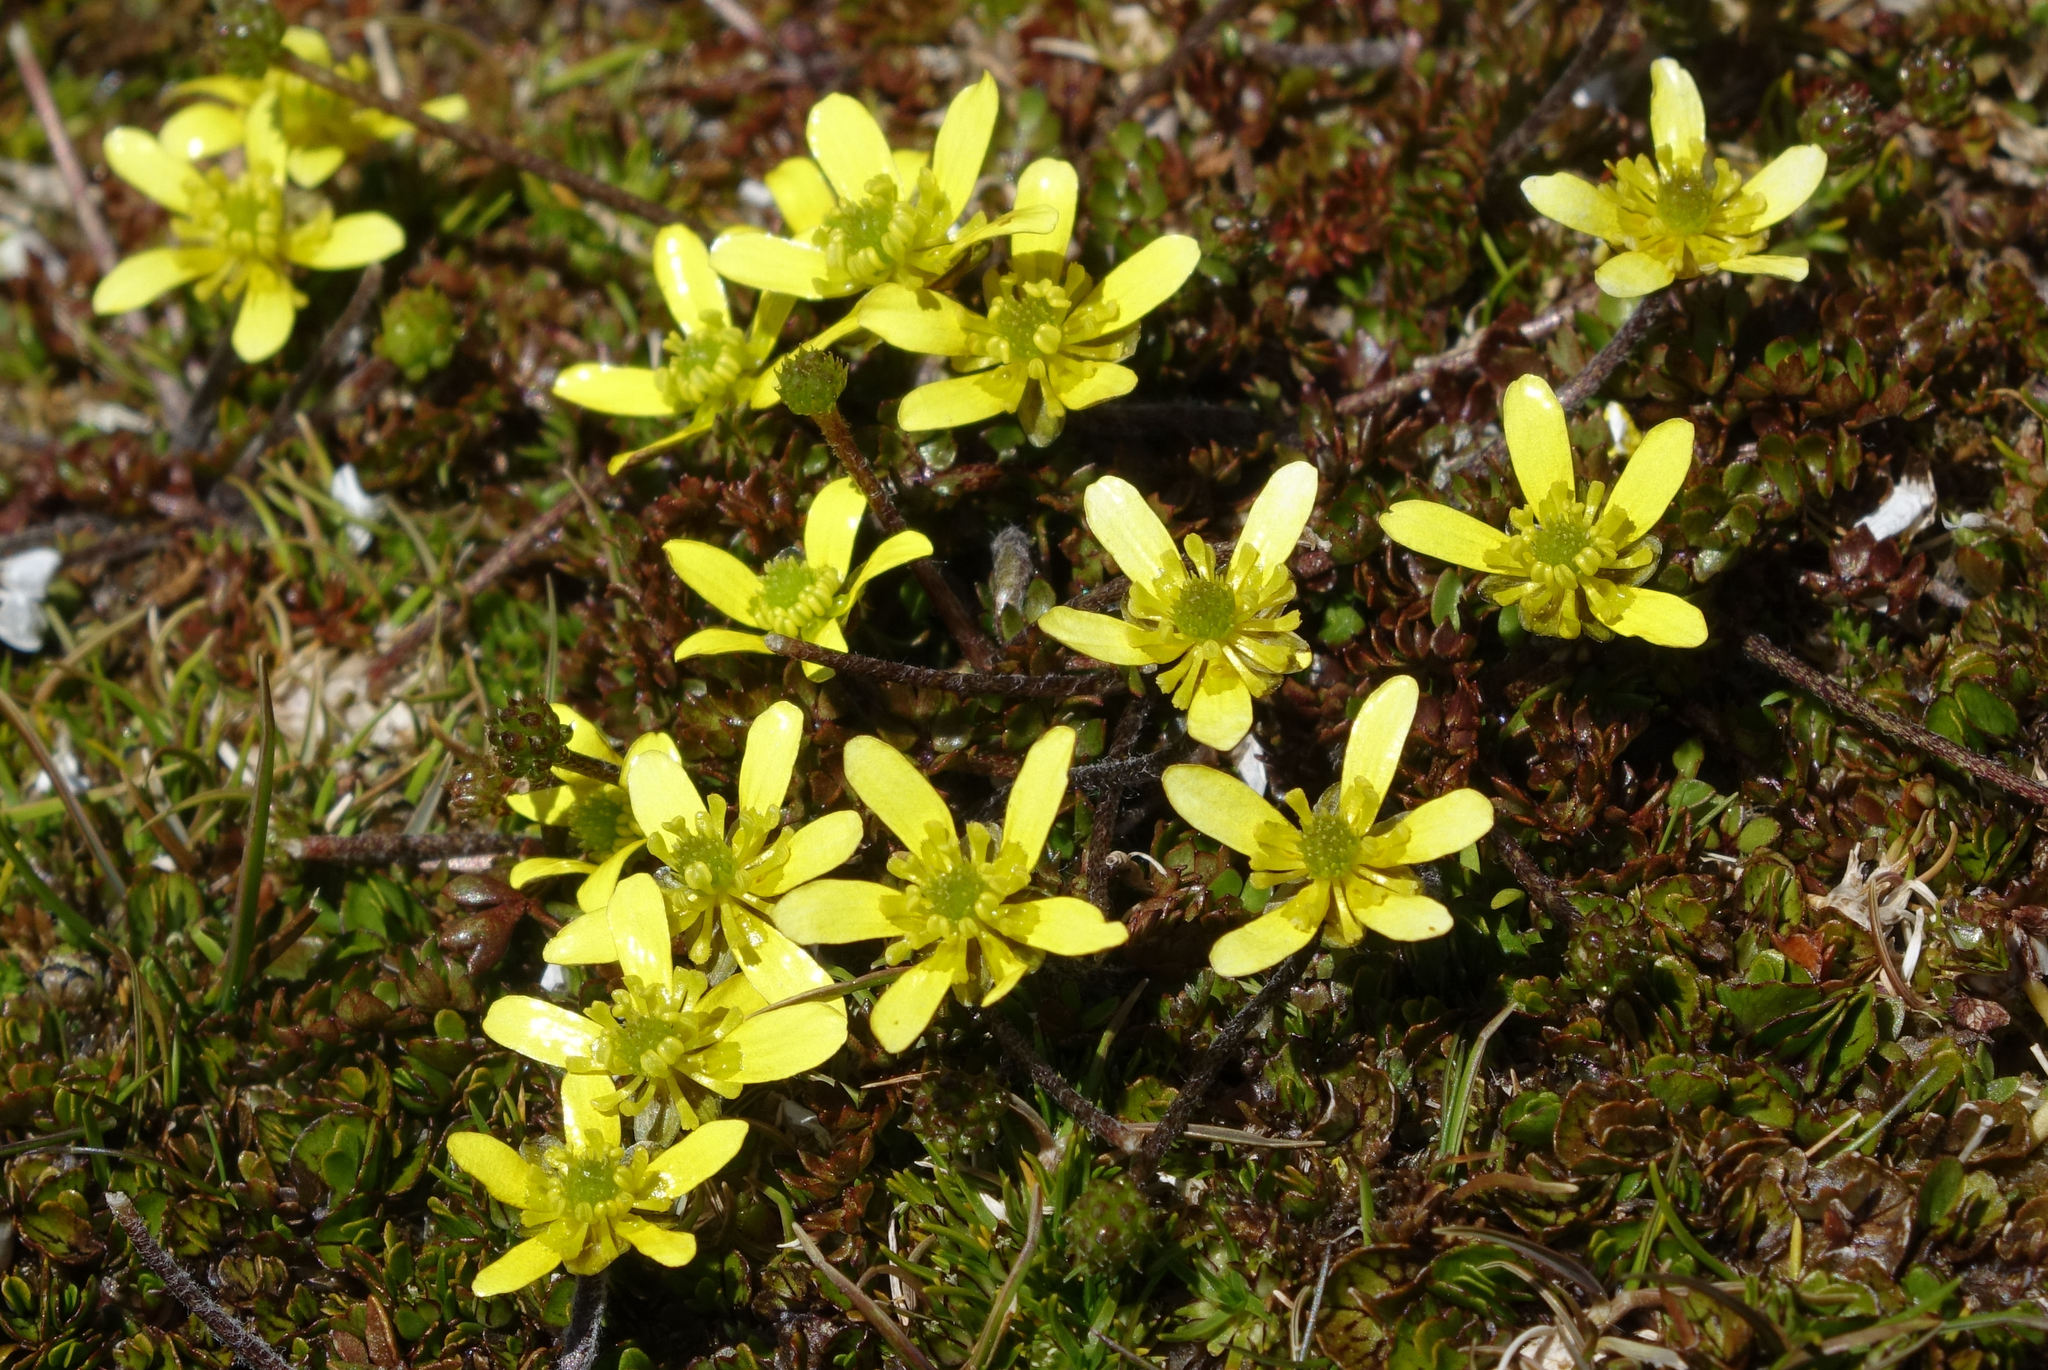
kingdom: Plantae
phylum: Tracheophyta
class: Magnoliopsida
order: Ranunculales
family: Ranunculaceae
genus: Ranunculus
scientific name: Ranunculus gracilipes
